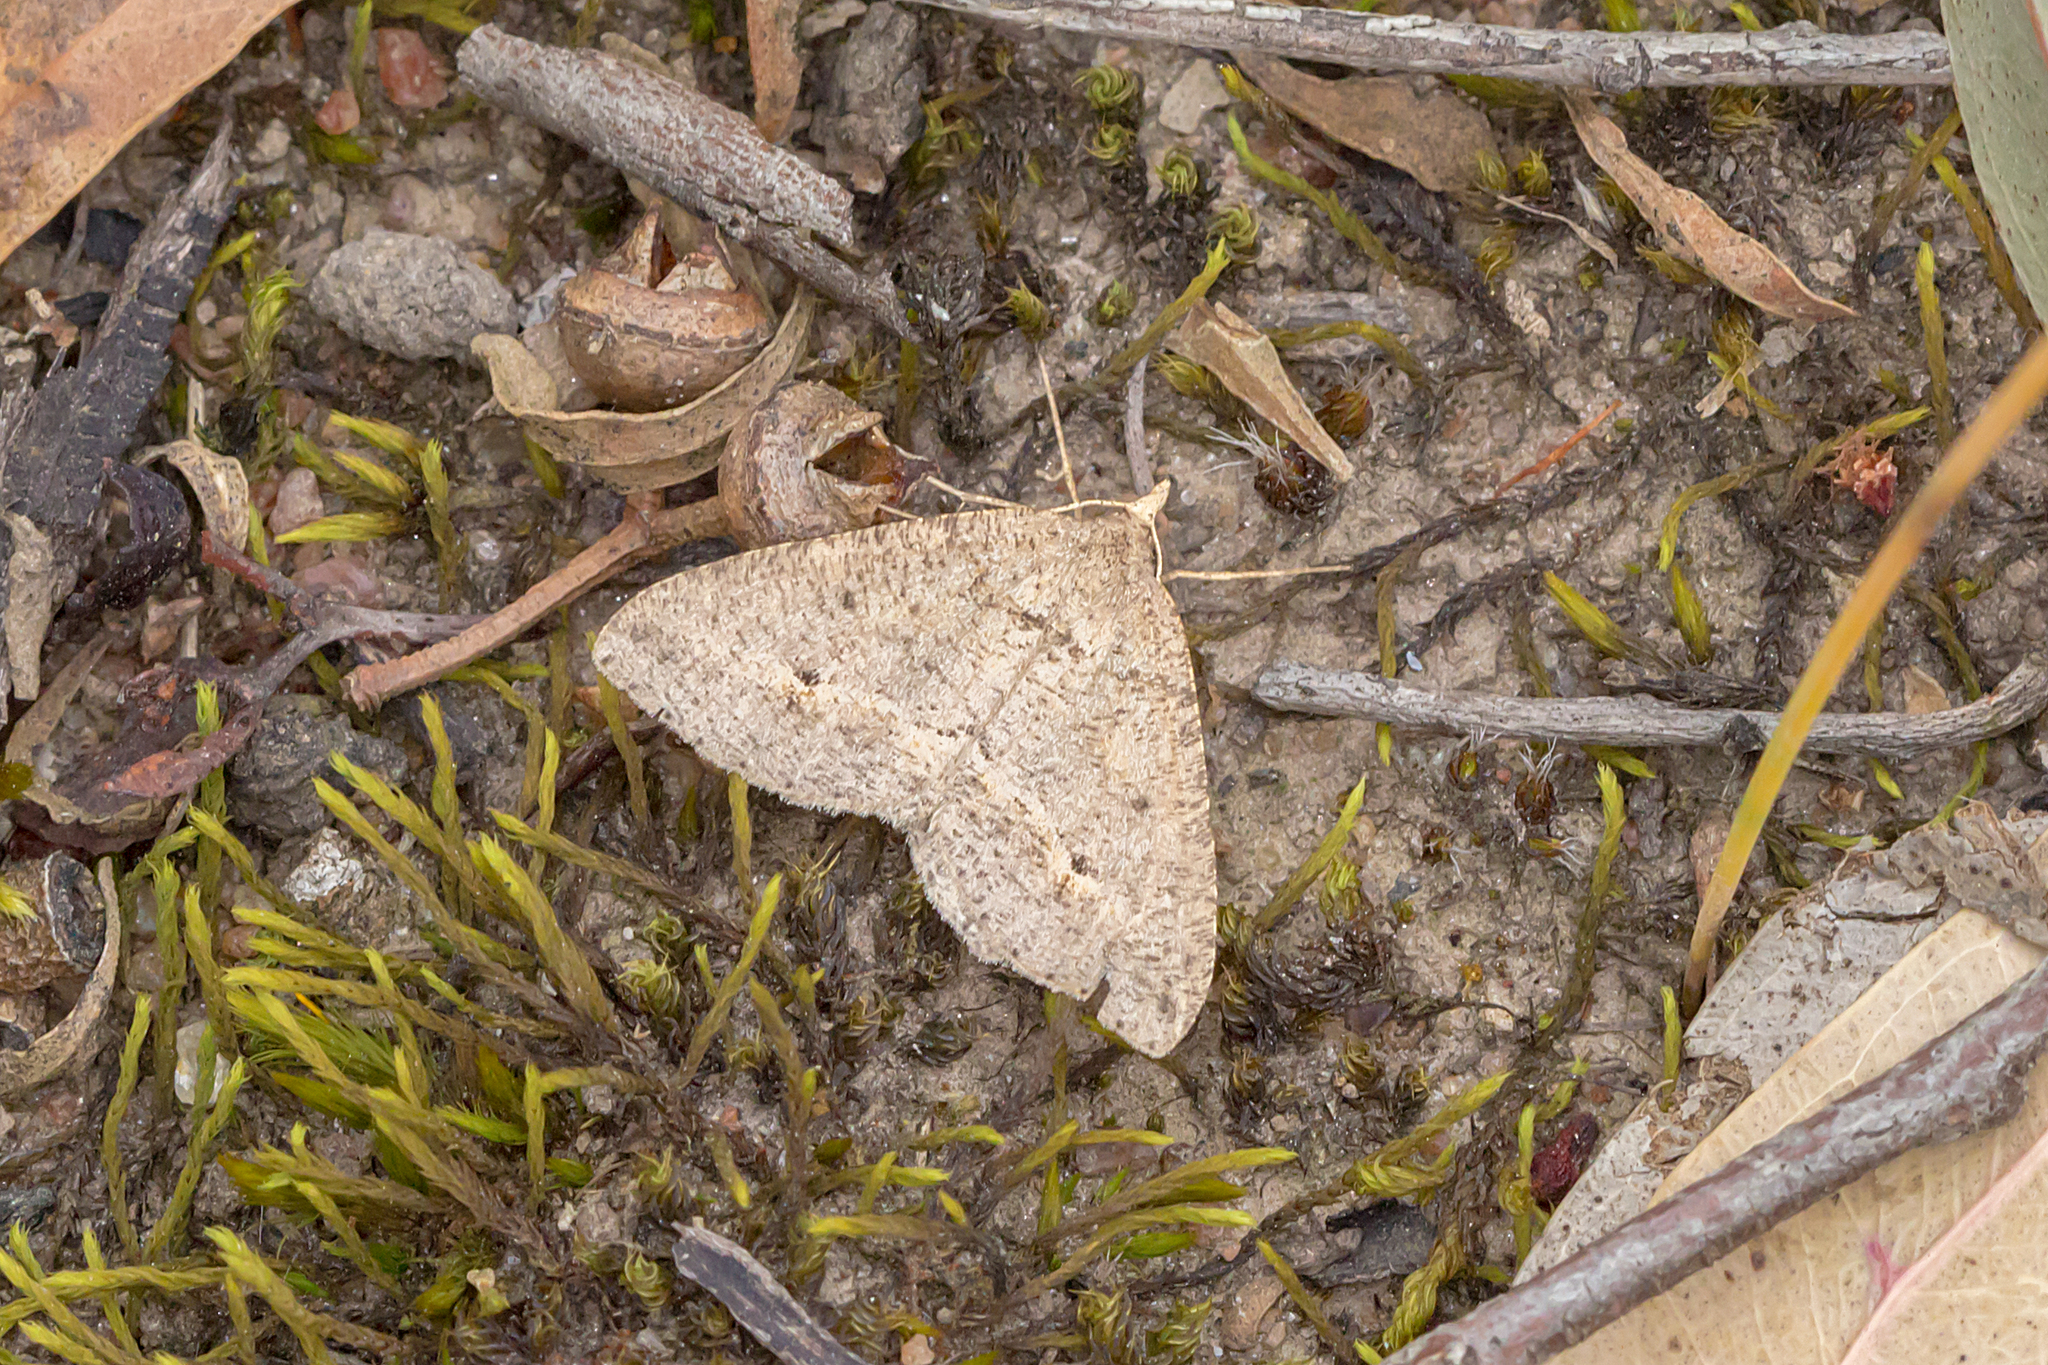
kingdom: Animalia
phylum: Arthropoda
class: Insecta
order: Lepidoptera
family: Geometridae
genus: Parosteodes
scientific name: Parosteodes fictiliaria
